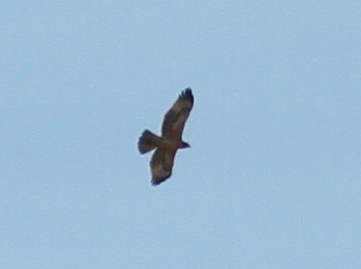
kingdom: Animalia
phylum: Chordata
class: Aves
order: Accipitriformes
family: Accipitridae
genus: Aquila
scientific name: Aquila fasciata
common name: Bonelli's eagle
